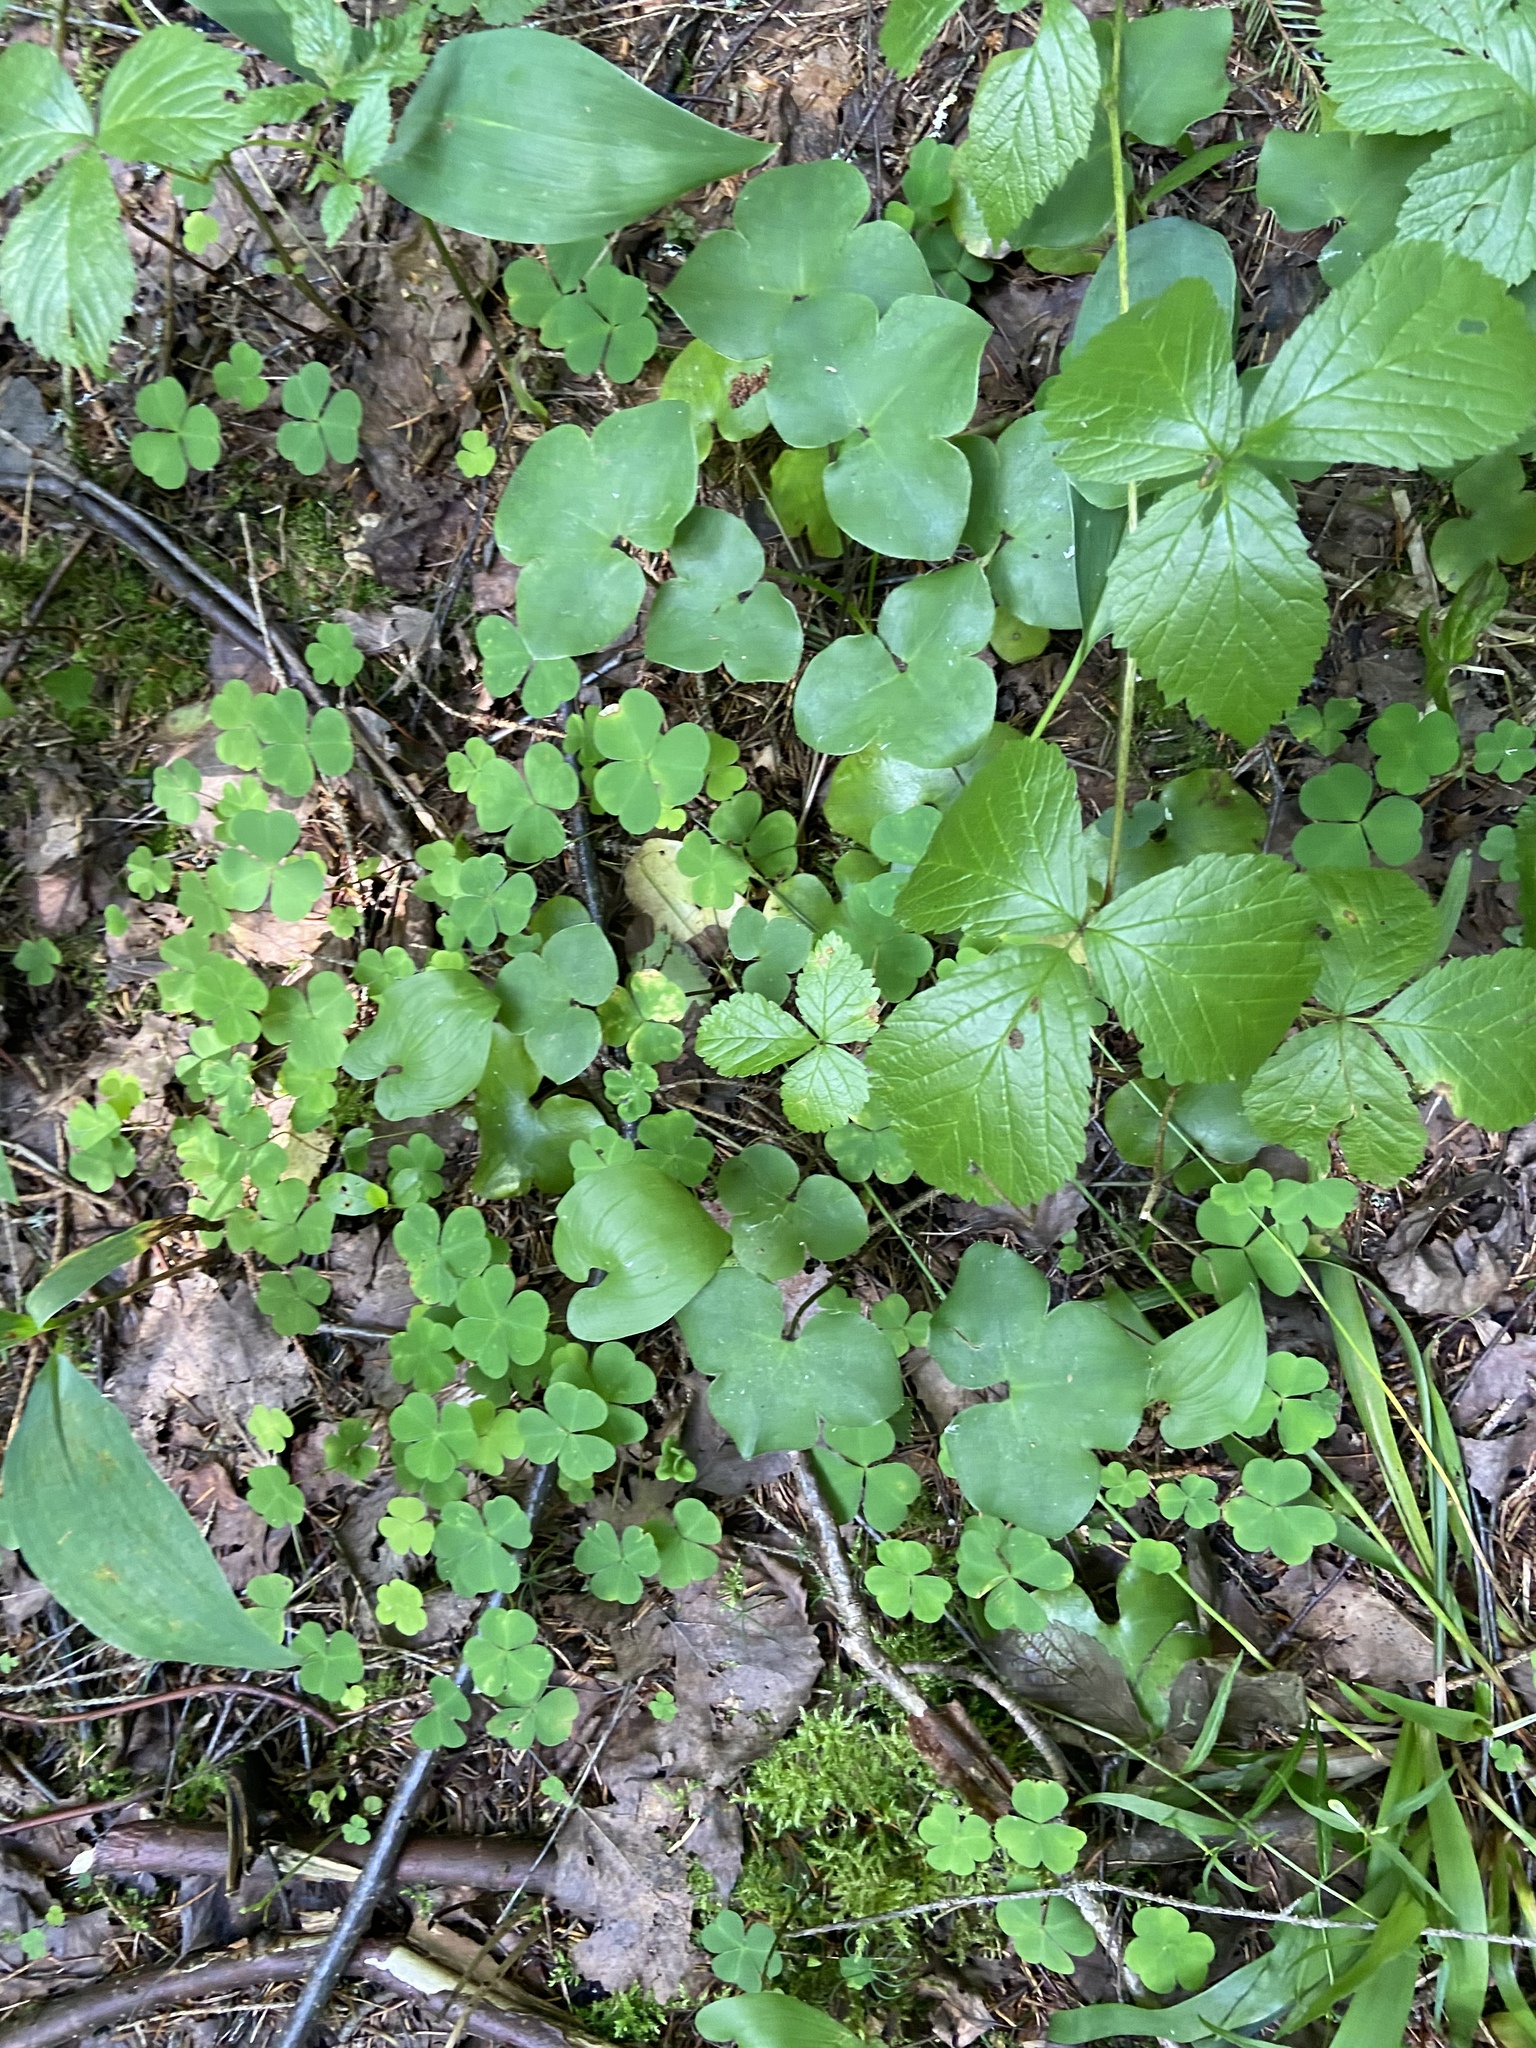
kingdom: Plantae
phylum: Tracheophyta
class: Magnoliopsida
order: Ranunculales
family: Ranunculaceae
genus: Hepatica
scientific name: Hepatica nobilis
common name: Liverleaf
